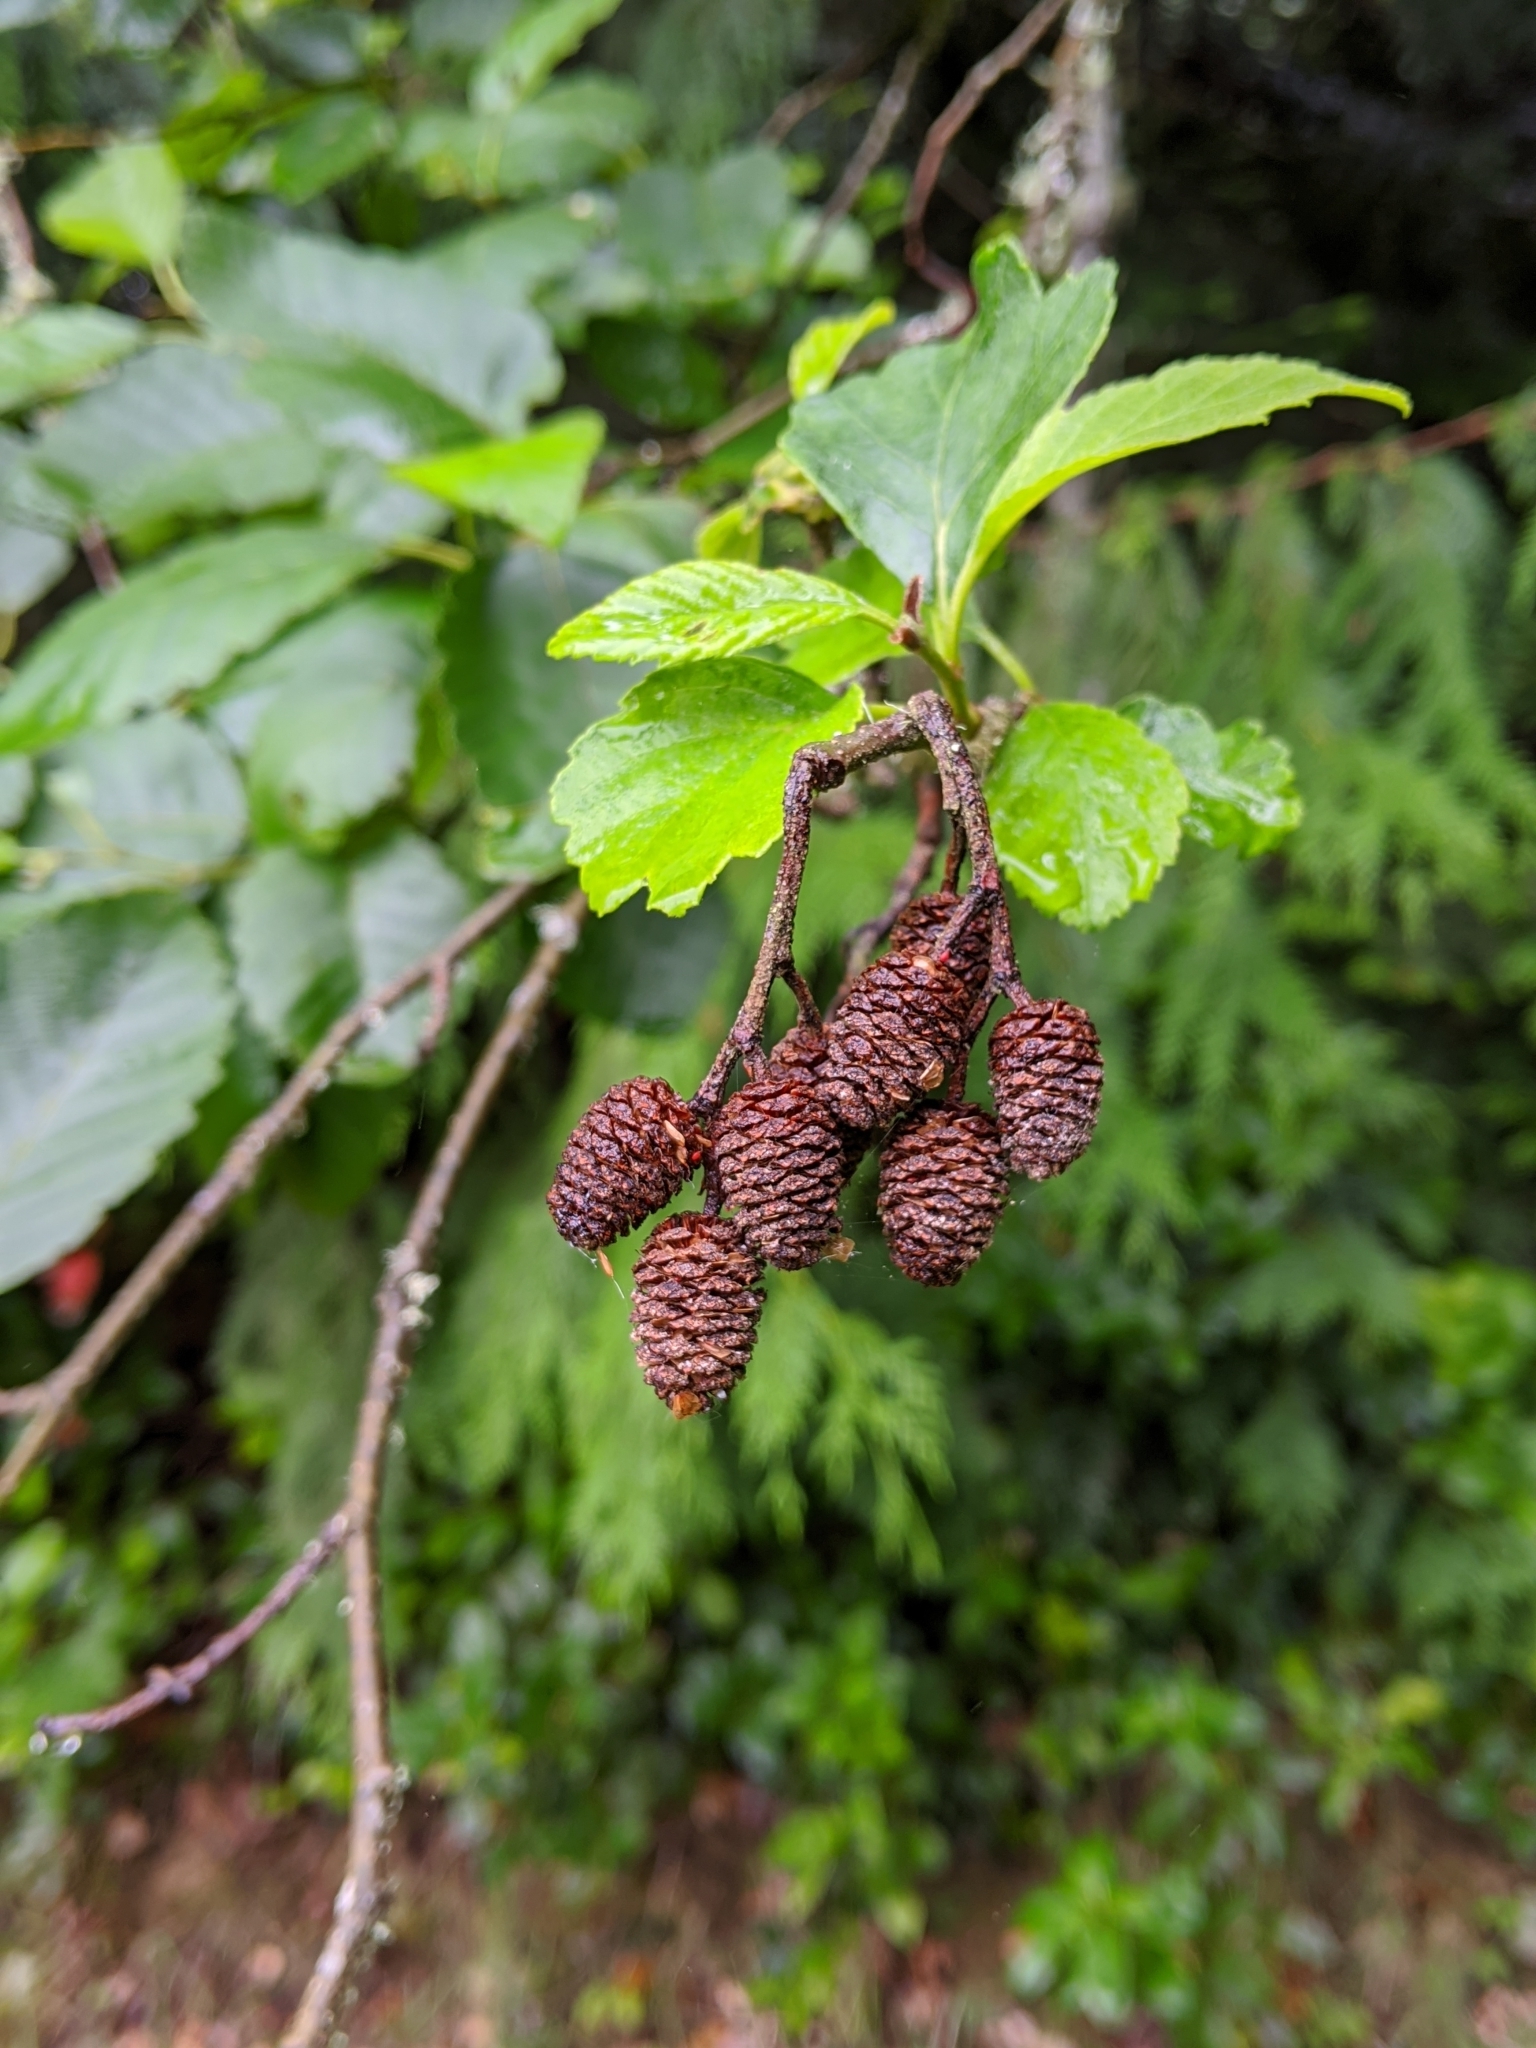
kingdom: Plantae
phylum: Tracheophyta
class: Magnoliopsida
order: Fagales
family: Betulaceae
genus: Alnus
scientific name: Alnus rubra
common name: Red alder
